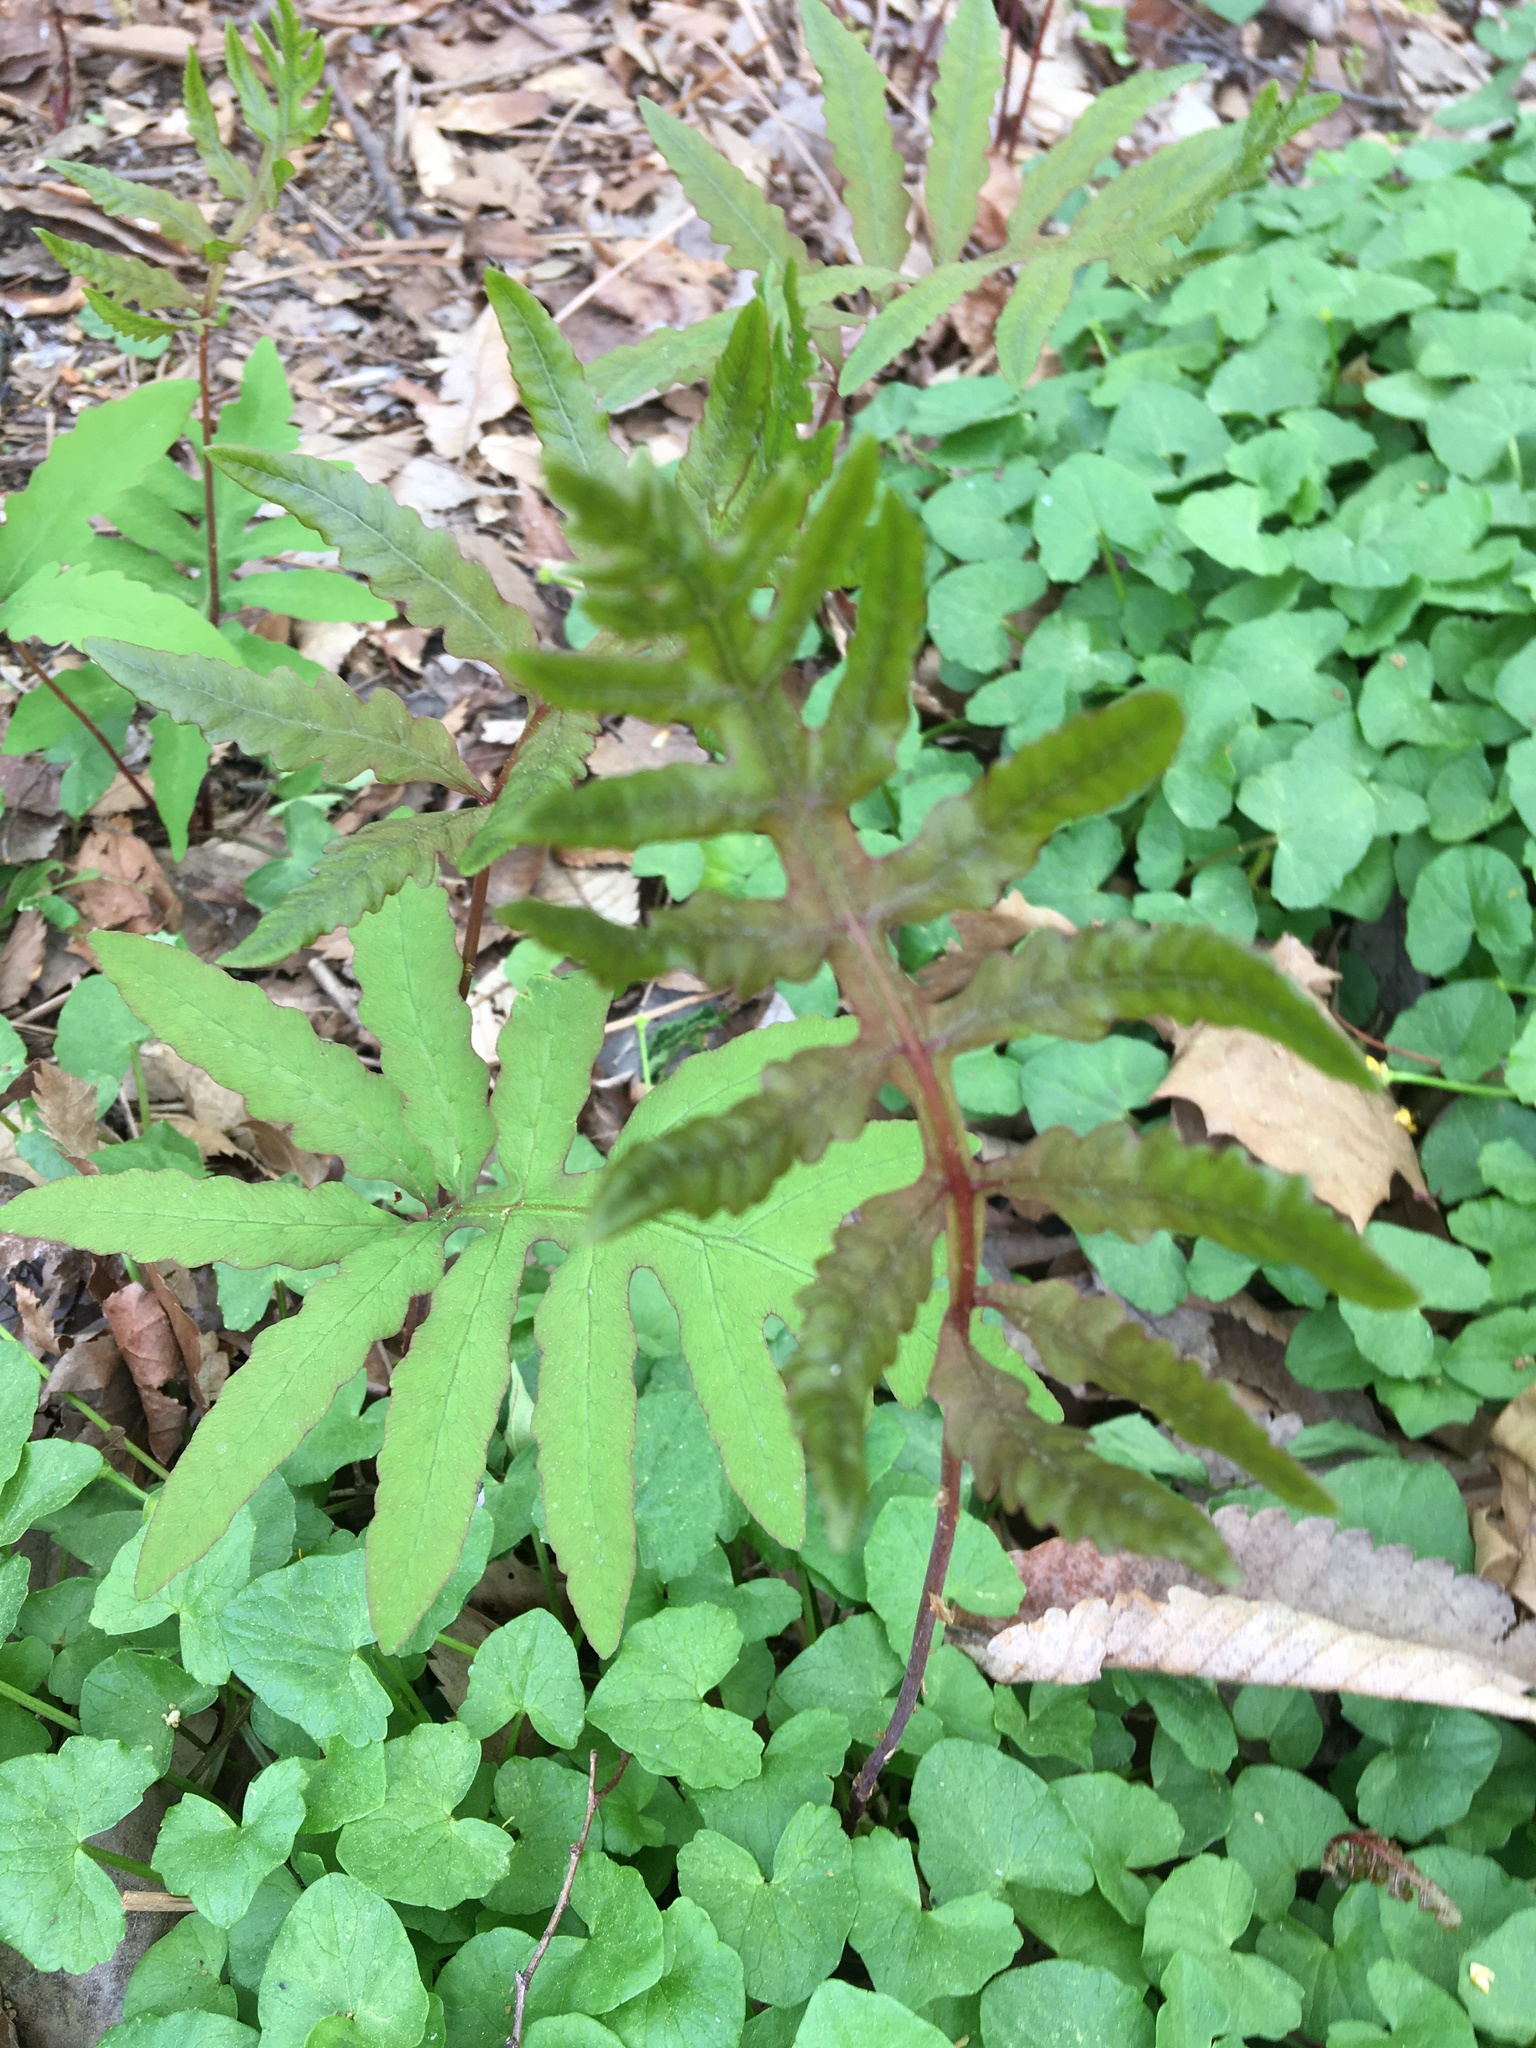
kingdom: Plantae
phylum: Tracheophyta
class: Polypodiopsida
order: Polypodiales
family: Onocleaceae
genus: Onoclea
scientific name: Onoclea sensibilis
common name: Sensitive fern
